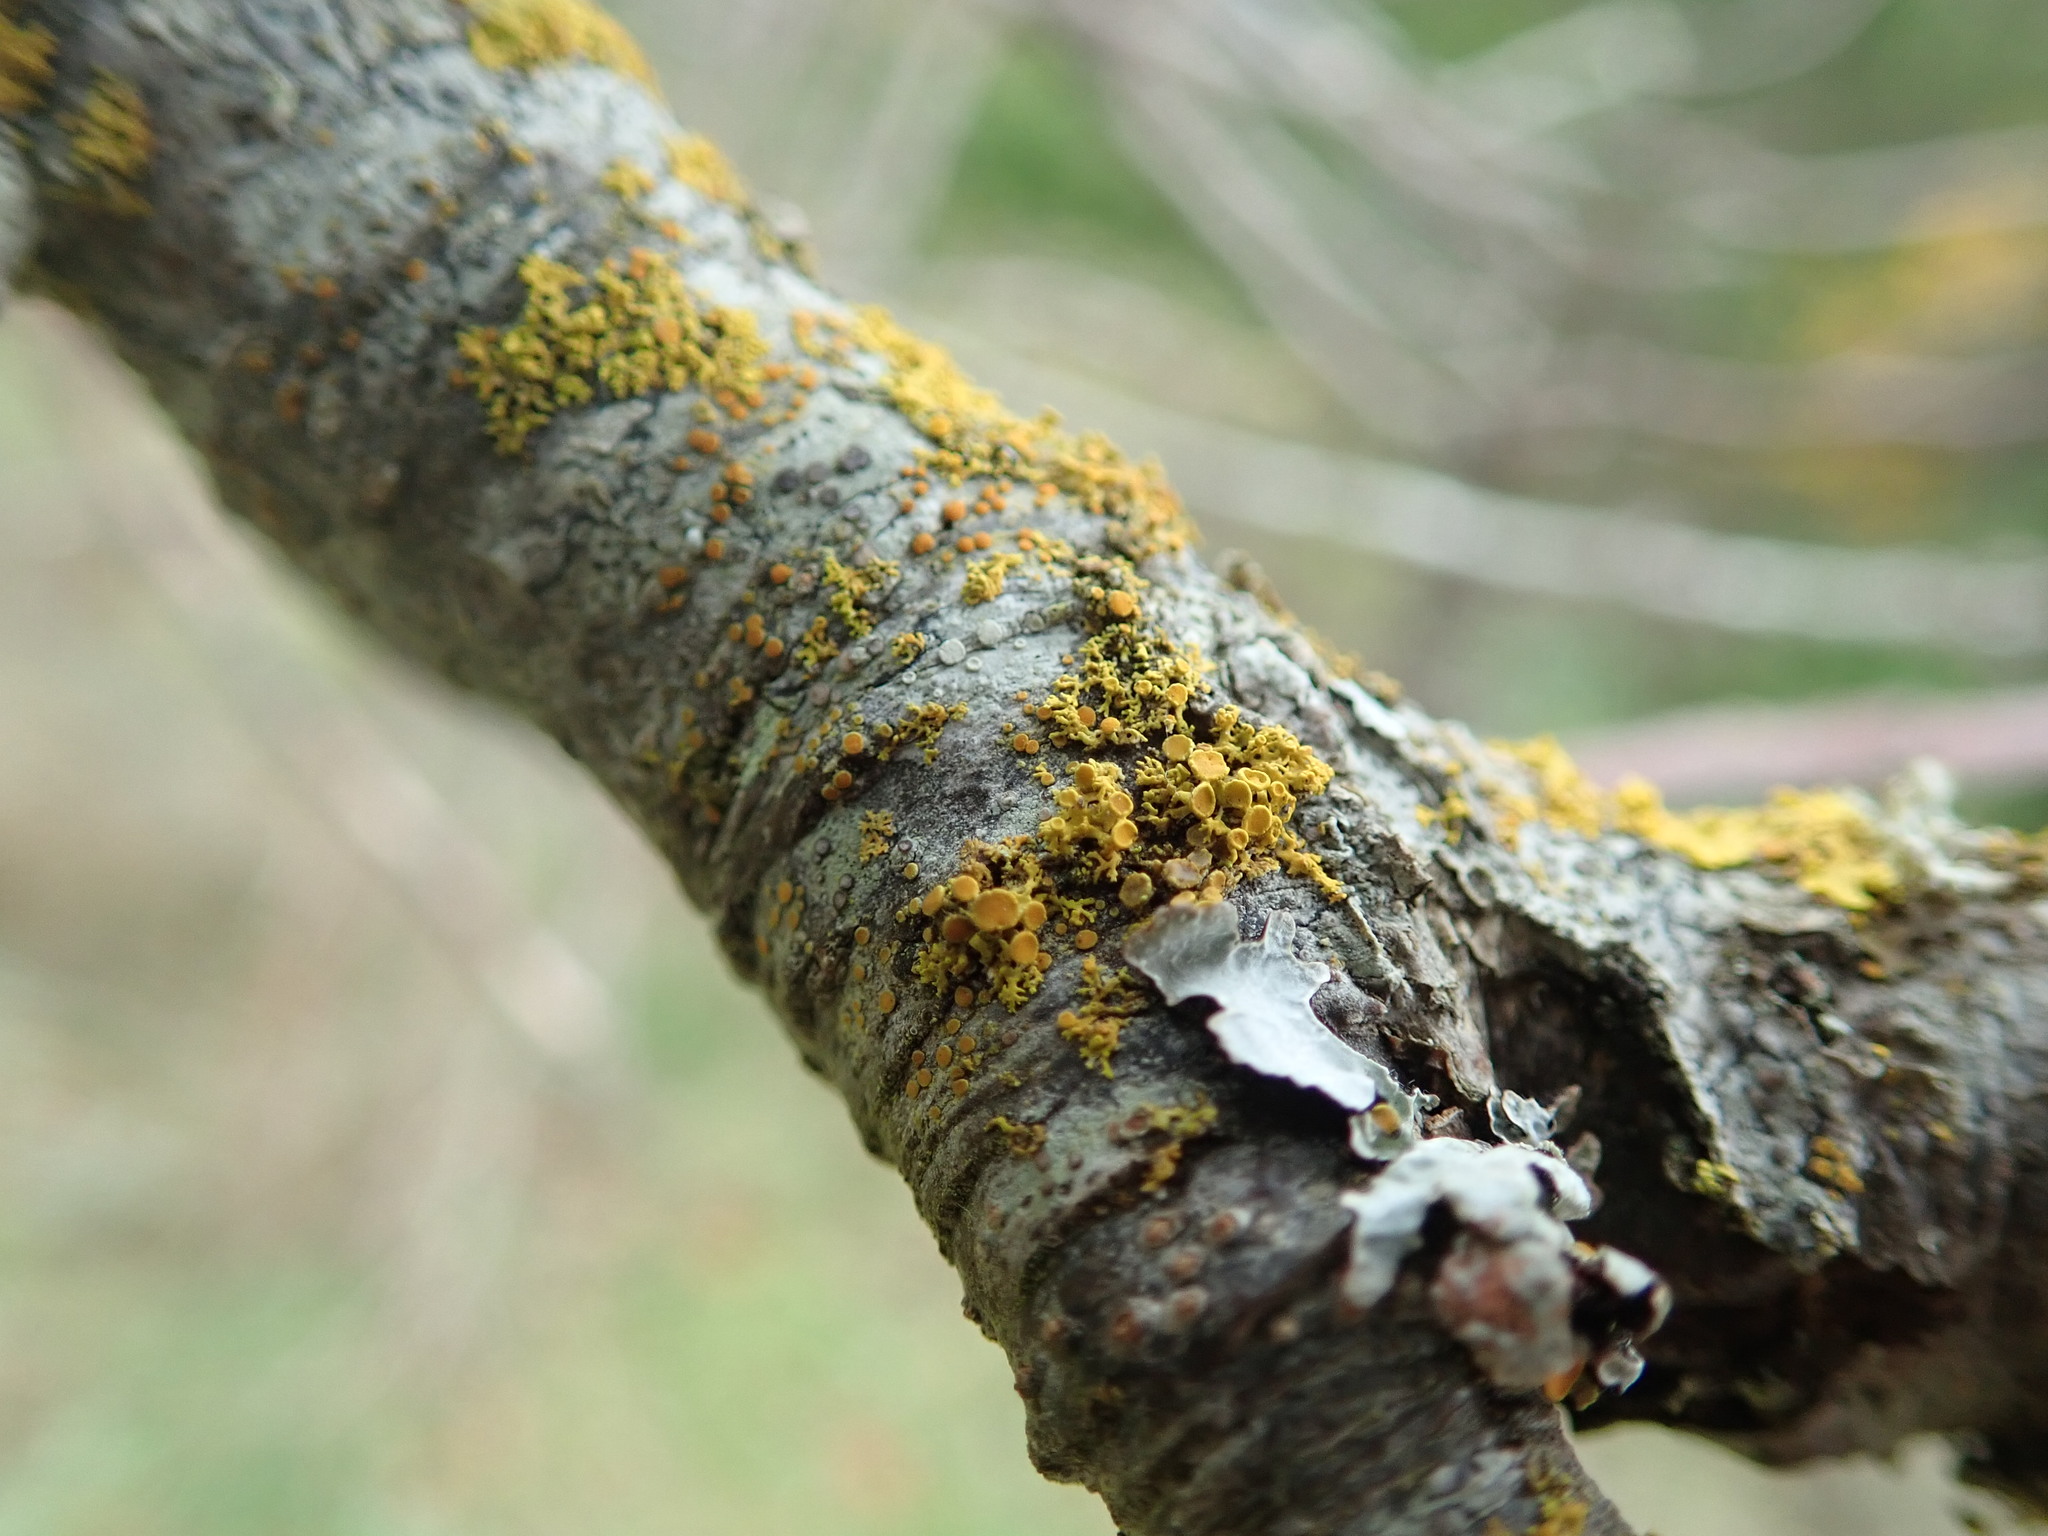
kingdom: Fungi
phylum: Ascomycota
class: Lecanoromycetes
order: Teloschistales
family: Teloschistaceae
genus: Polycauliona
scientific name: Polycauliona polycarpa
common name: Pin-cushion sunburst lichen
